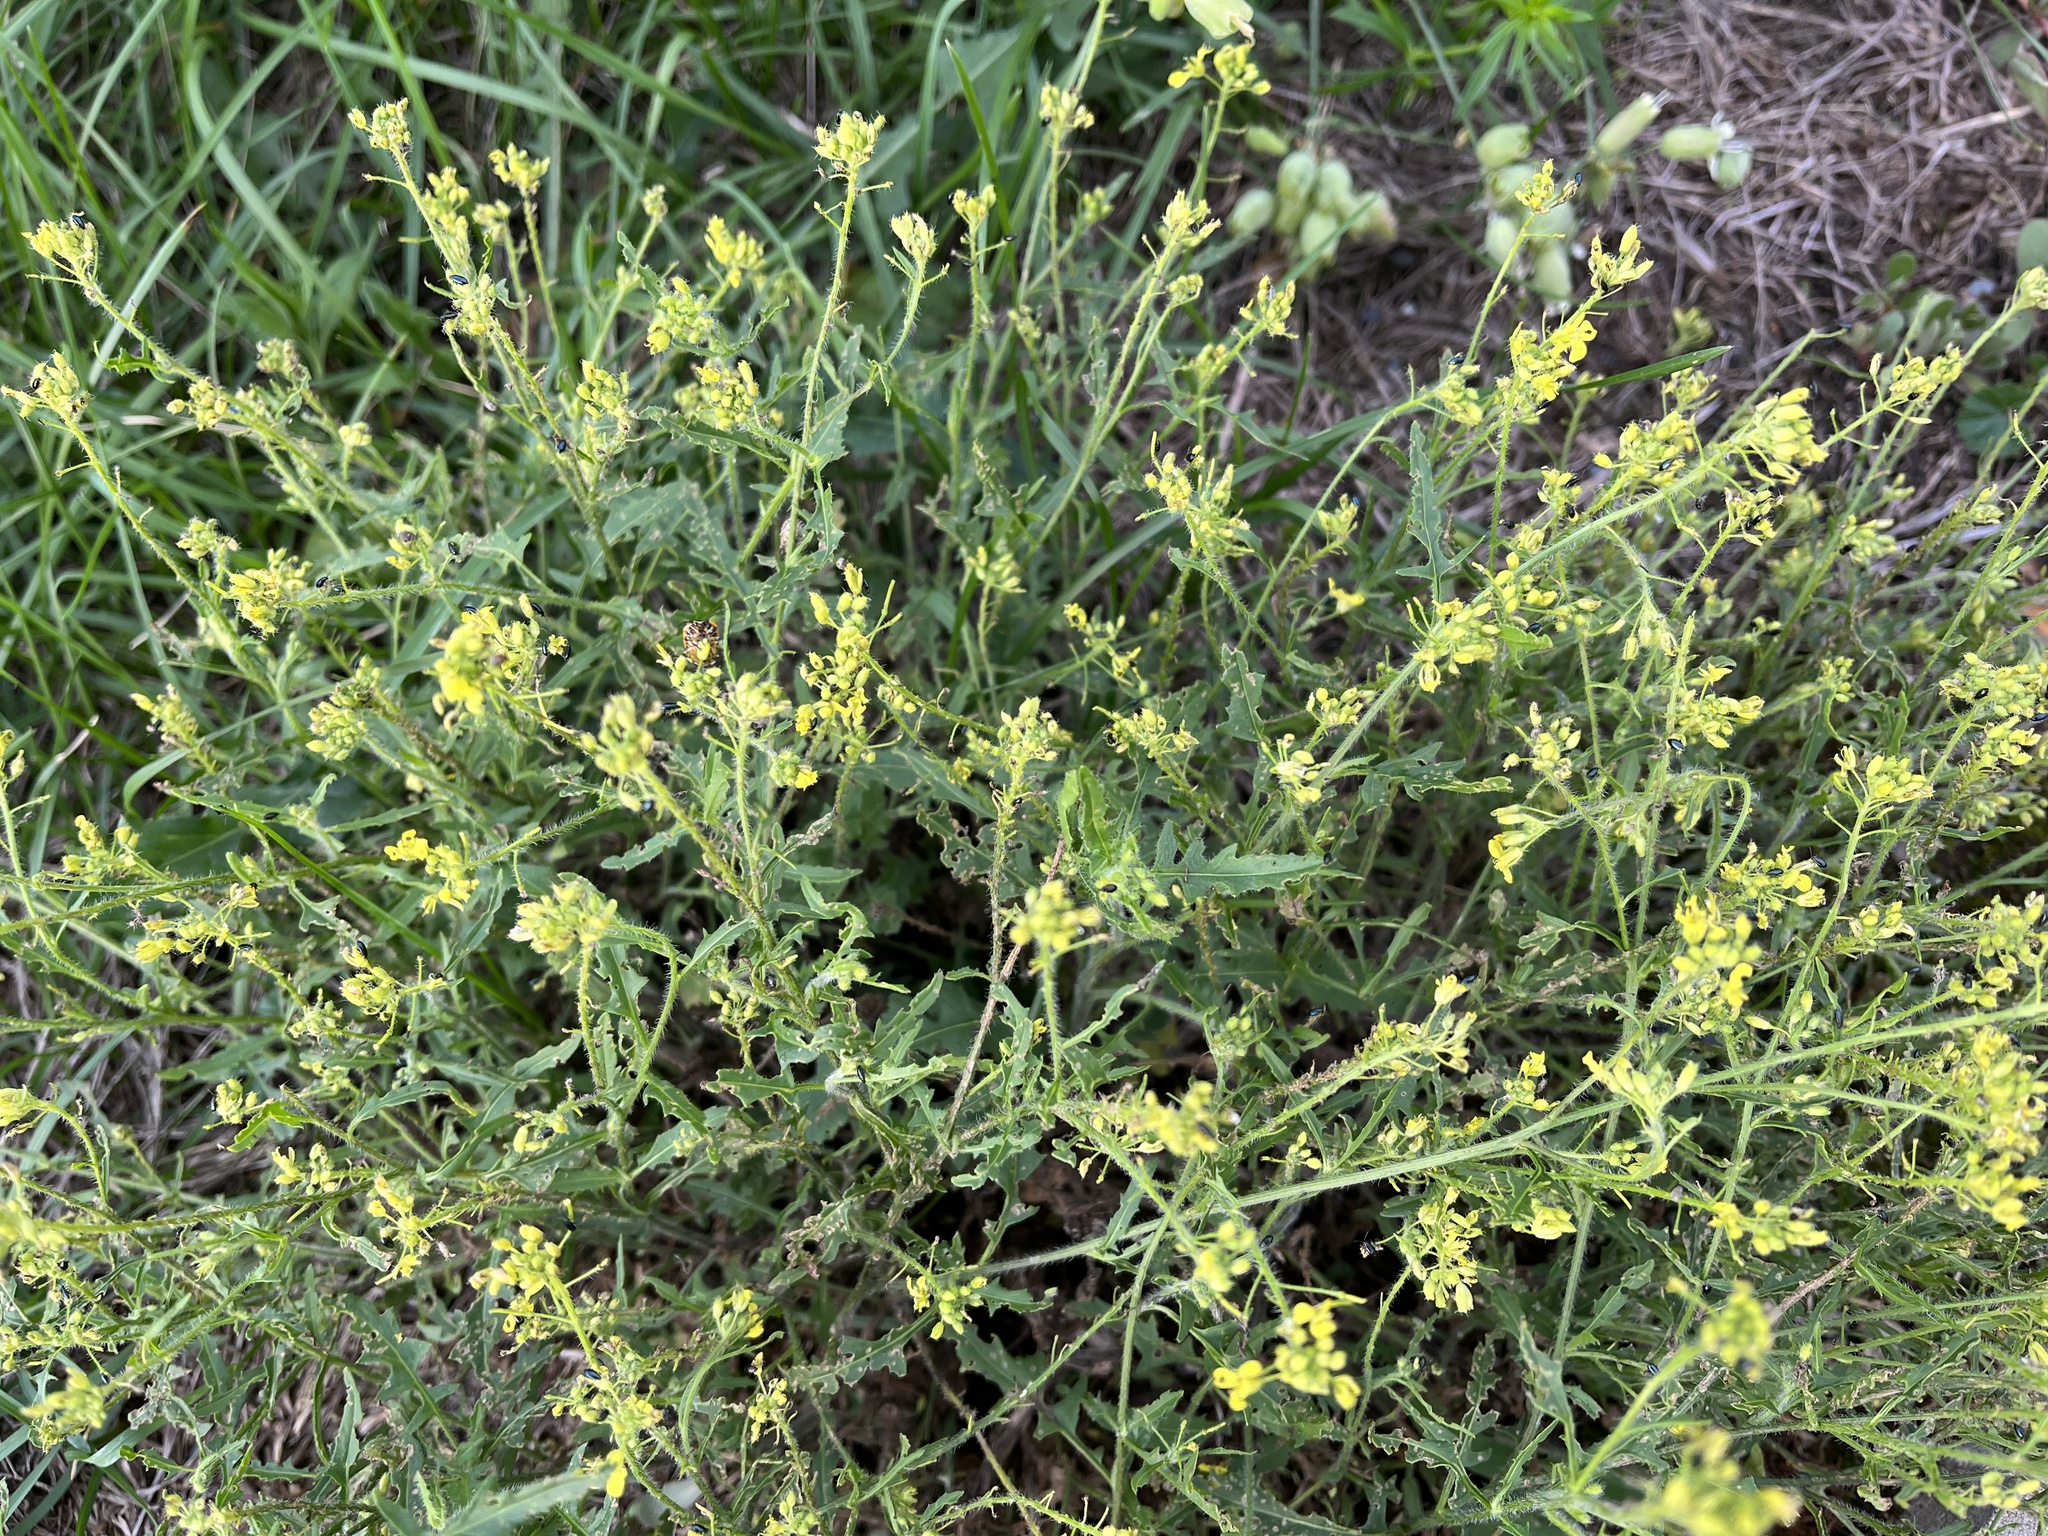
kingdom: Plantae
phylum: Tracheophyta
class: Magnoliopsida
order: Brassicales
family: Brassicaceae
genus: Sisymbrium
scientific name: Sisymbrium loeselii
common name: False london-rocket
